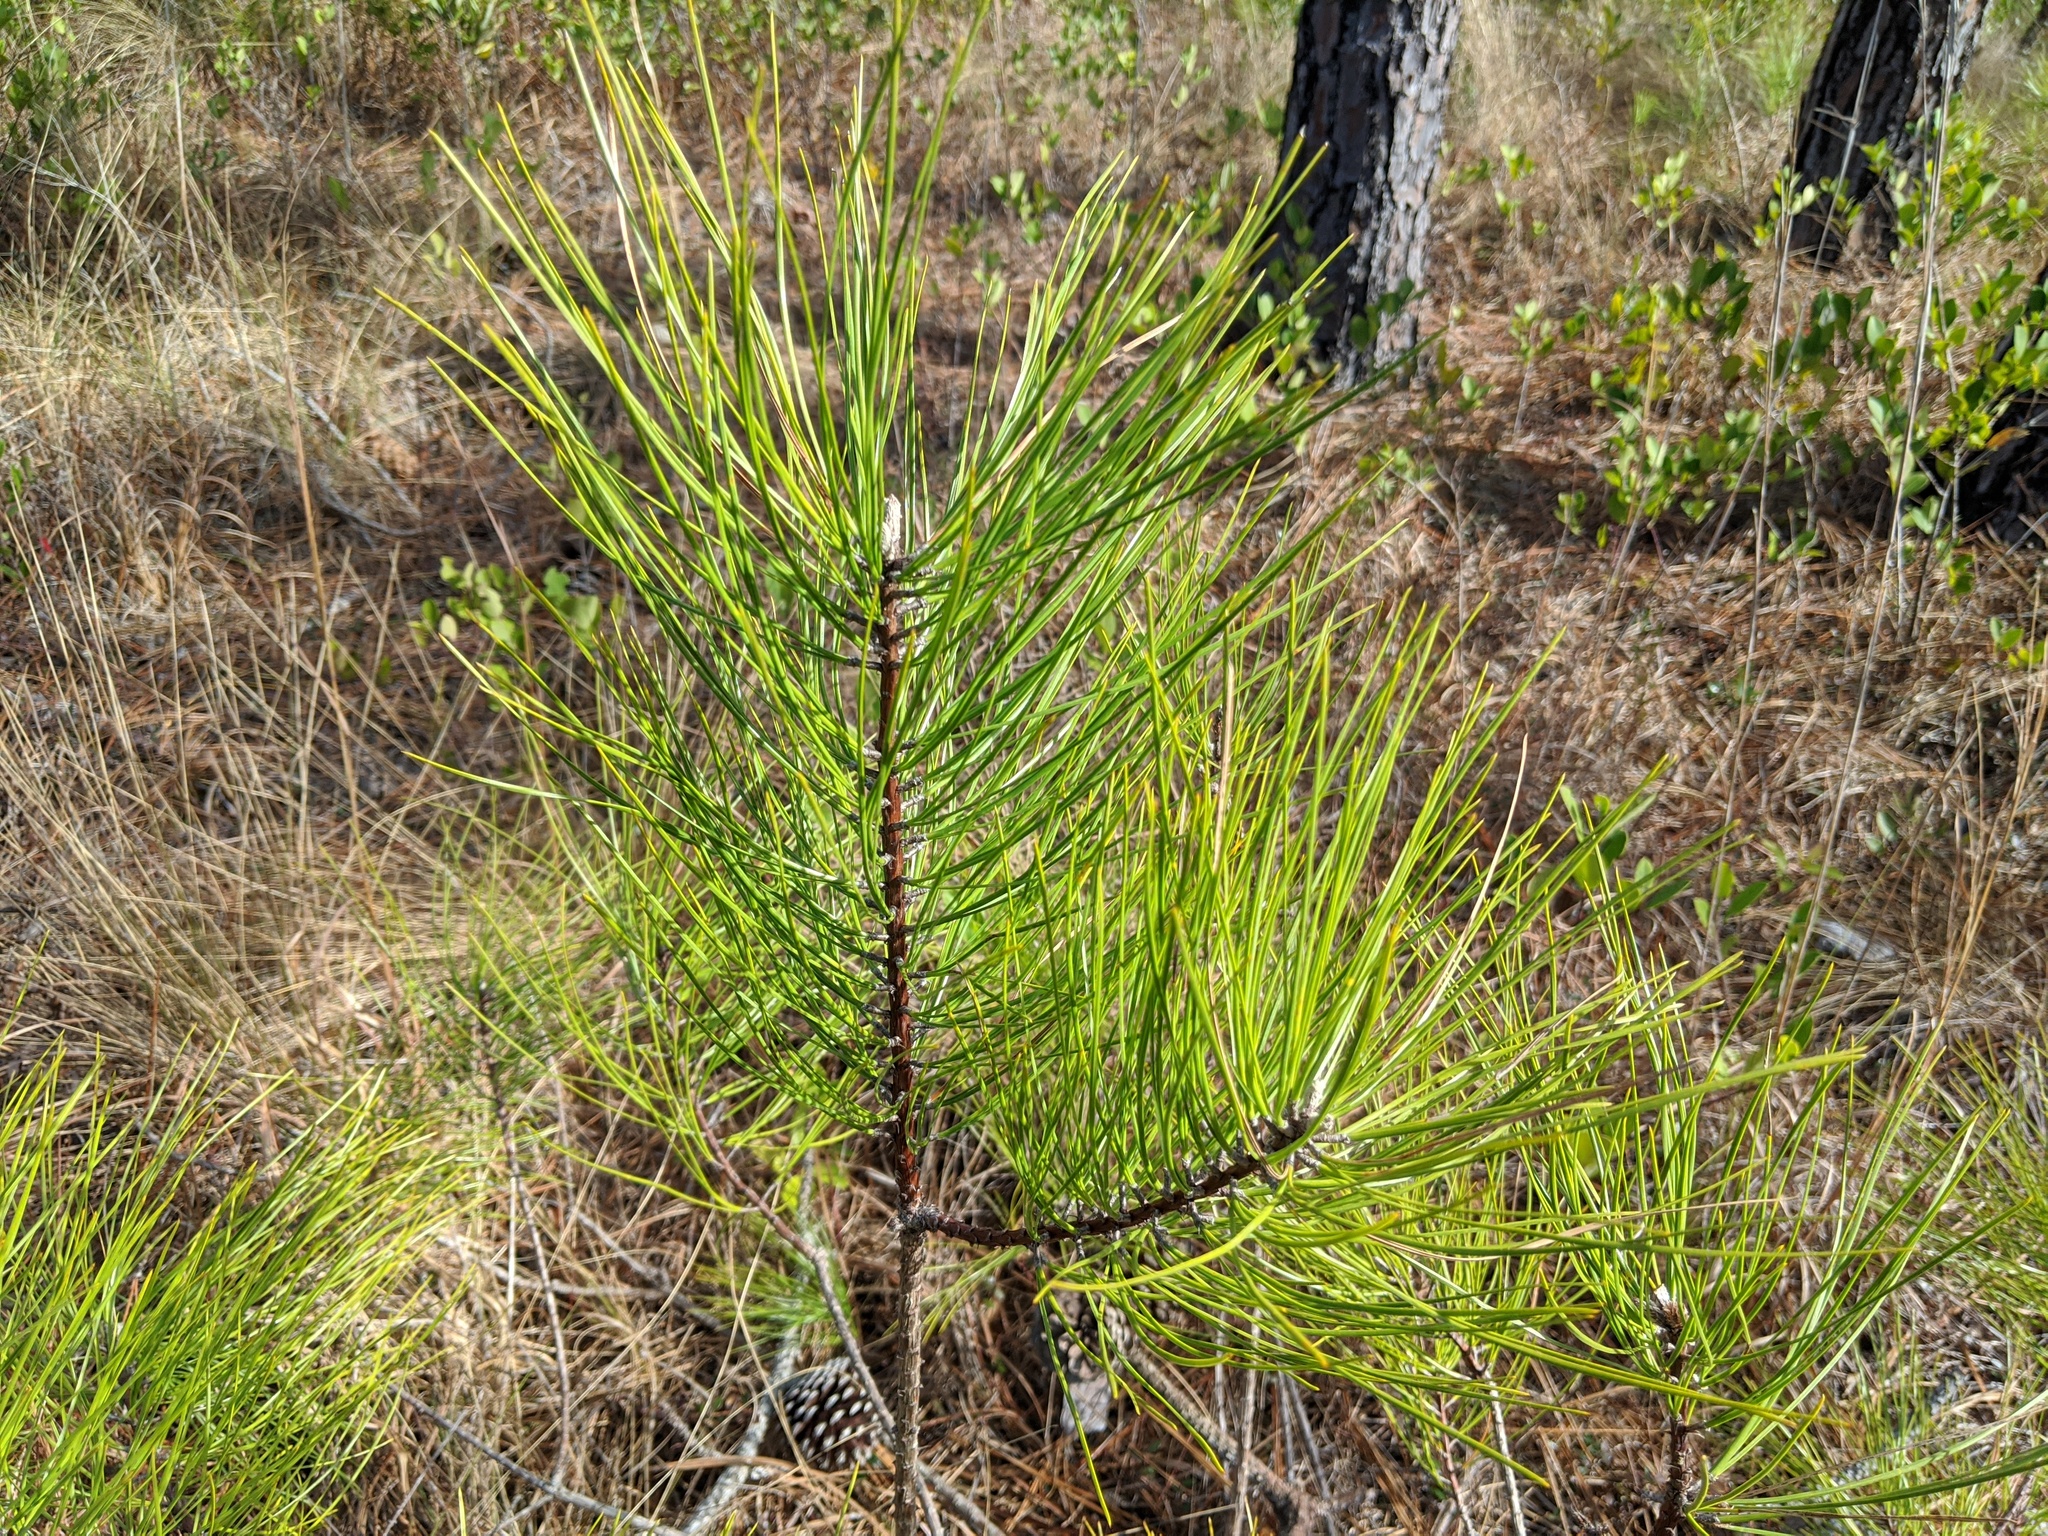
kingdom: Plantae
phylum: Tracheophyta
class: Pinopsida
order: Pinales
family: Pinaceae
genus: Pinus
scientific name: Pinus serotina
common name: Marsh pine
